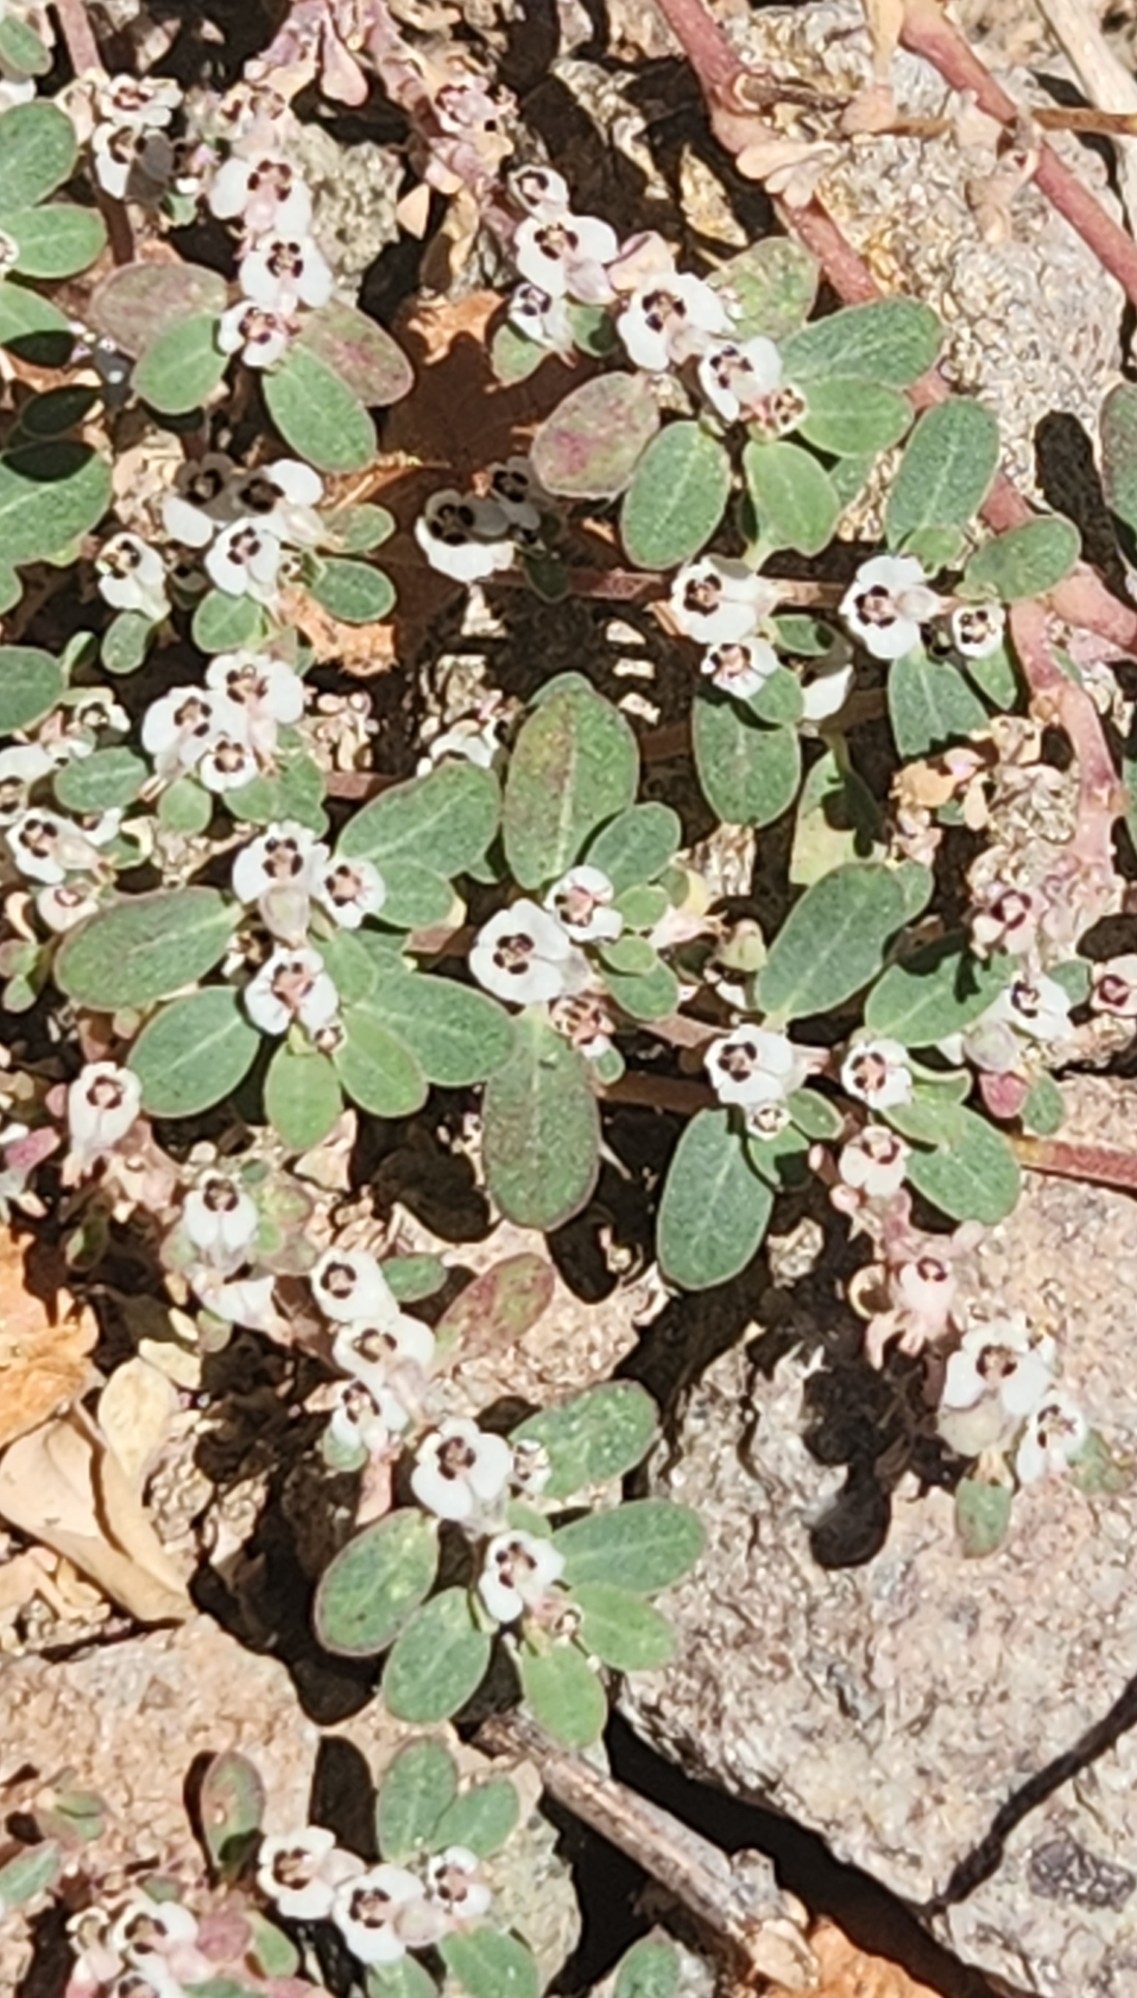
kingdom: Plantae
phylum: Tracheophyta
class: Magnoliopsida
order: Malpighiales
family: Euphorbiaceae
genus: Euphorbia
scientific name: Euphorbia pediculifera
